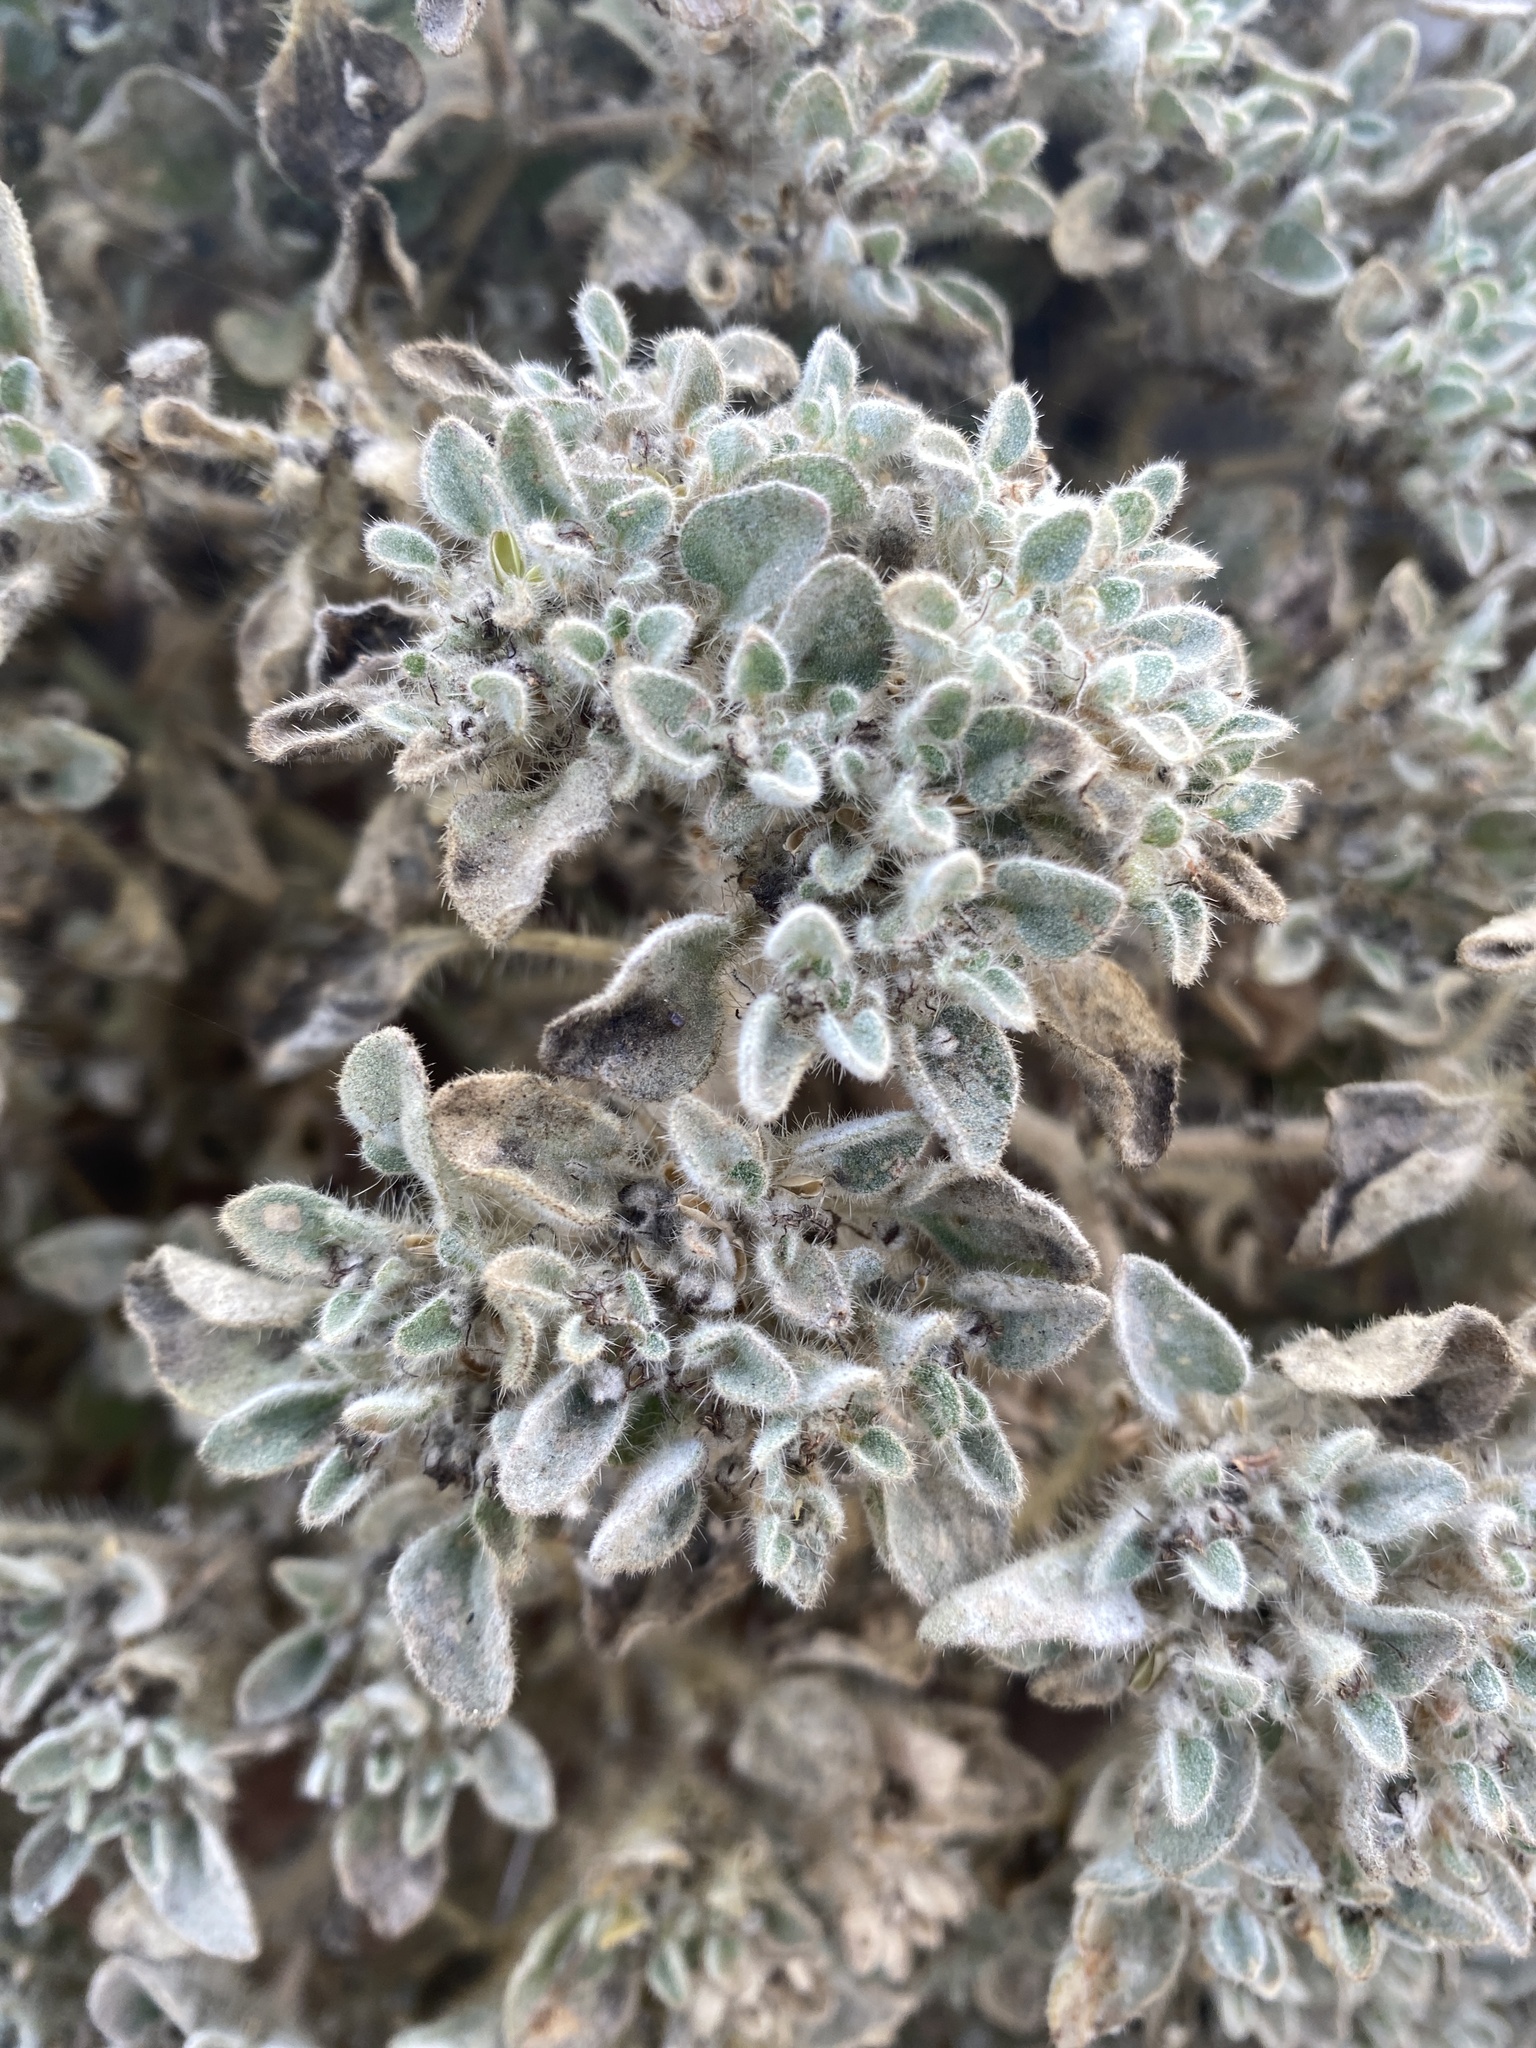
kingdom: Plantae
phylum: Tracheophyta
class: Magnoliopsida
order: Malpighiales
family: Euphorbiaceae
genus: Croton
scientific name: Croton setiger
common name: Dove weed
